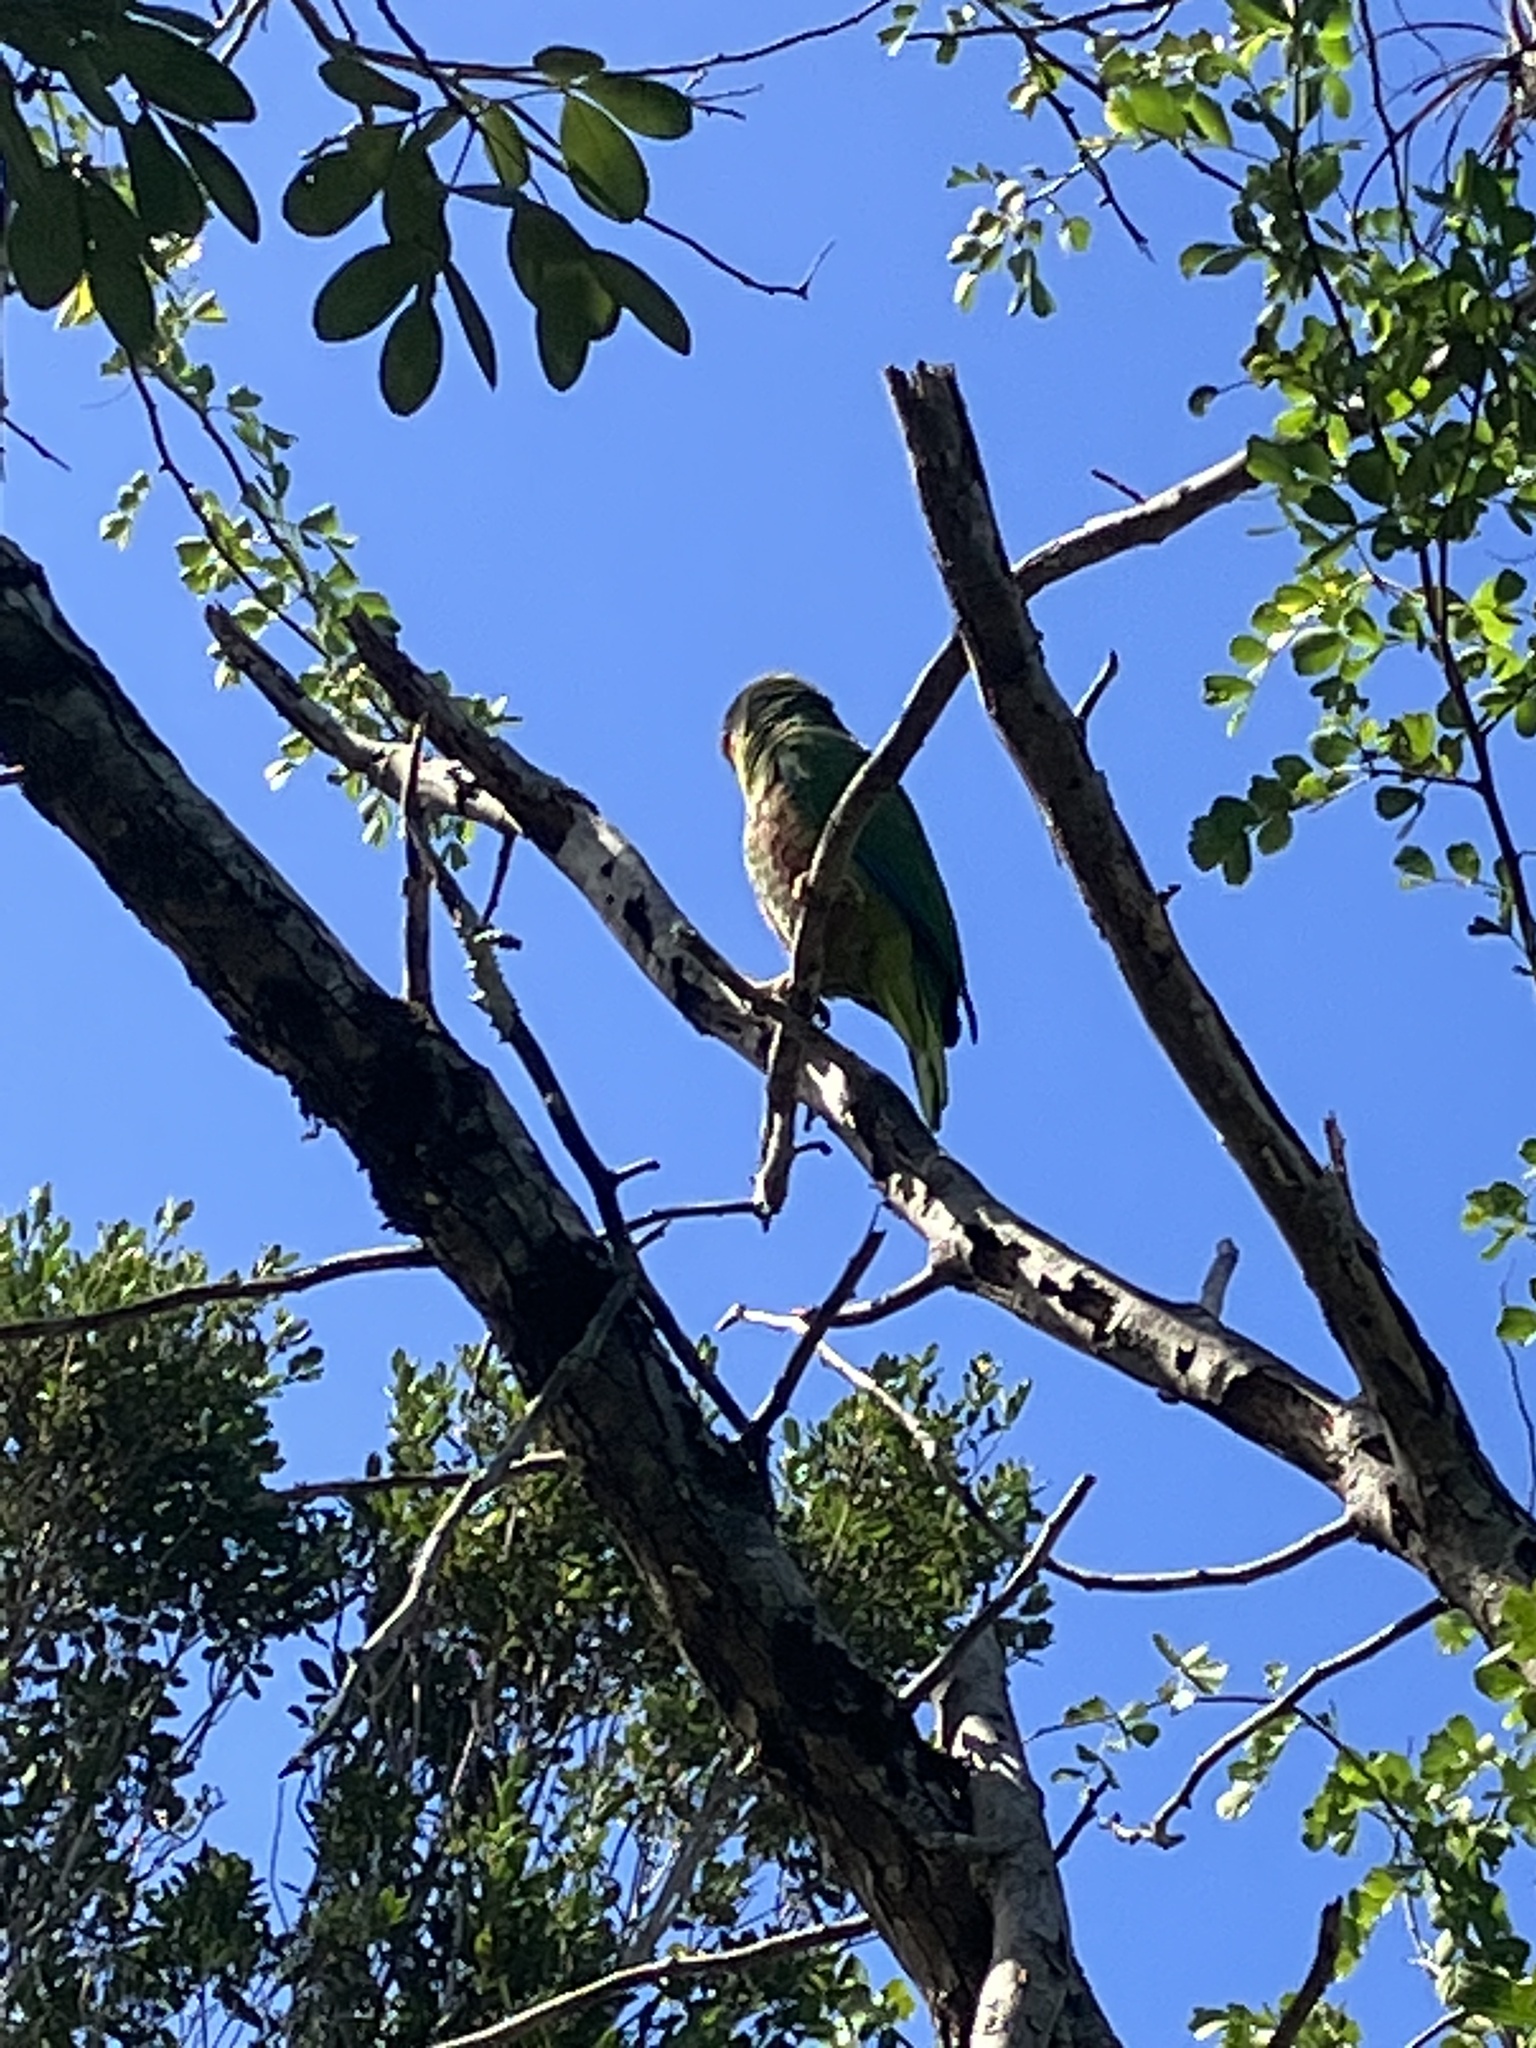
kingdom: Animalia
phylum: Chordata
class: Aves
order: Psittaciformes
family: Psittacidae
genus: Amazona
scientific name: Amazona leucocephala
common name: Cuban amazon
